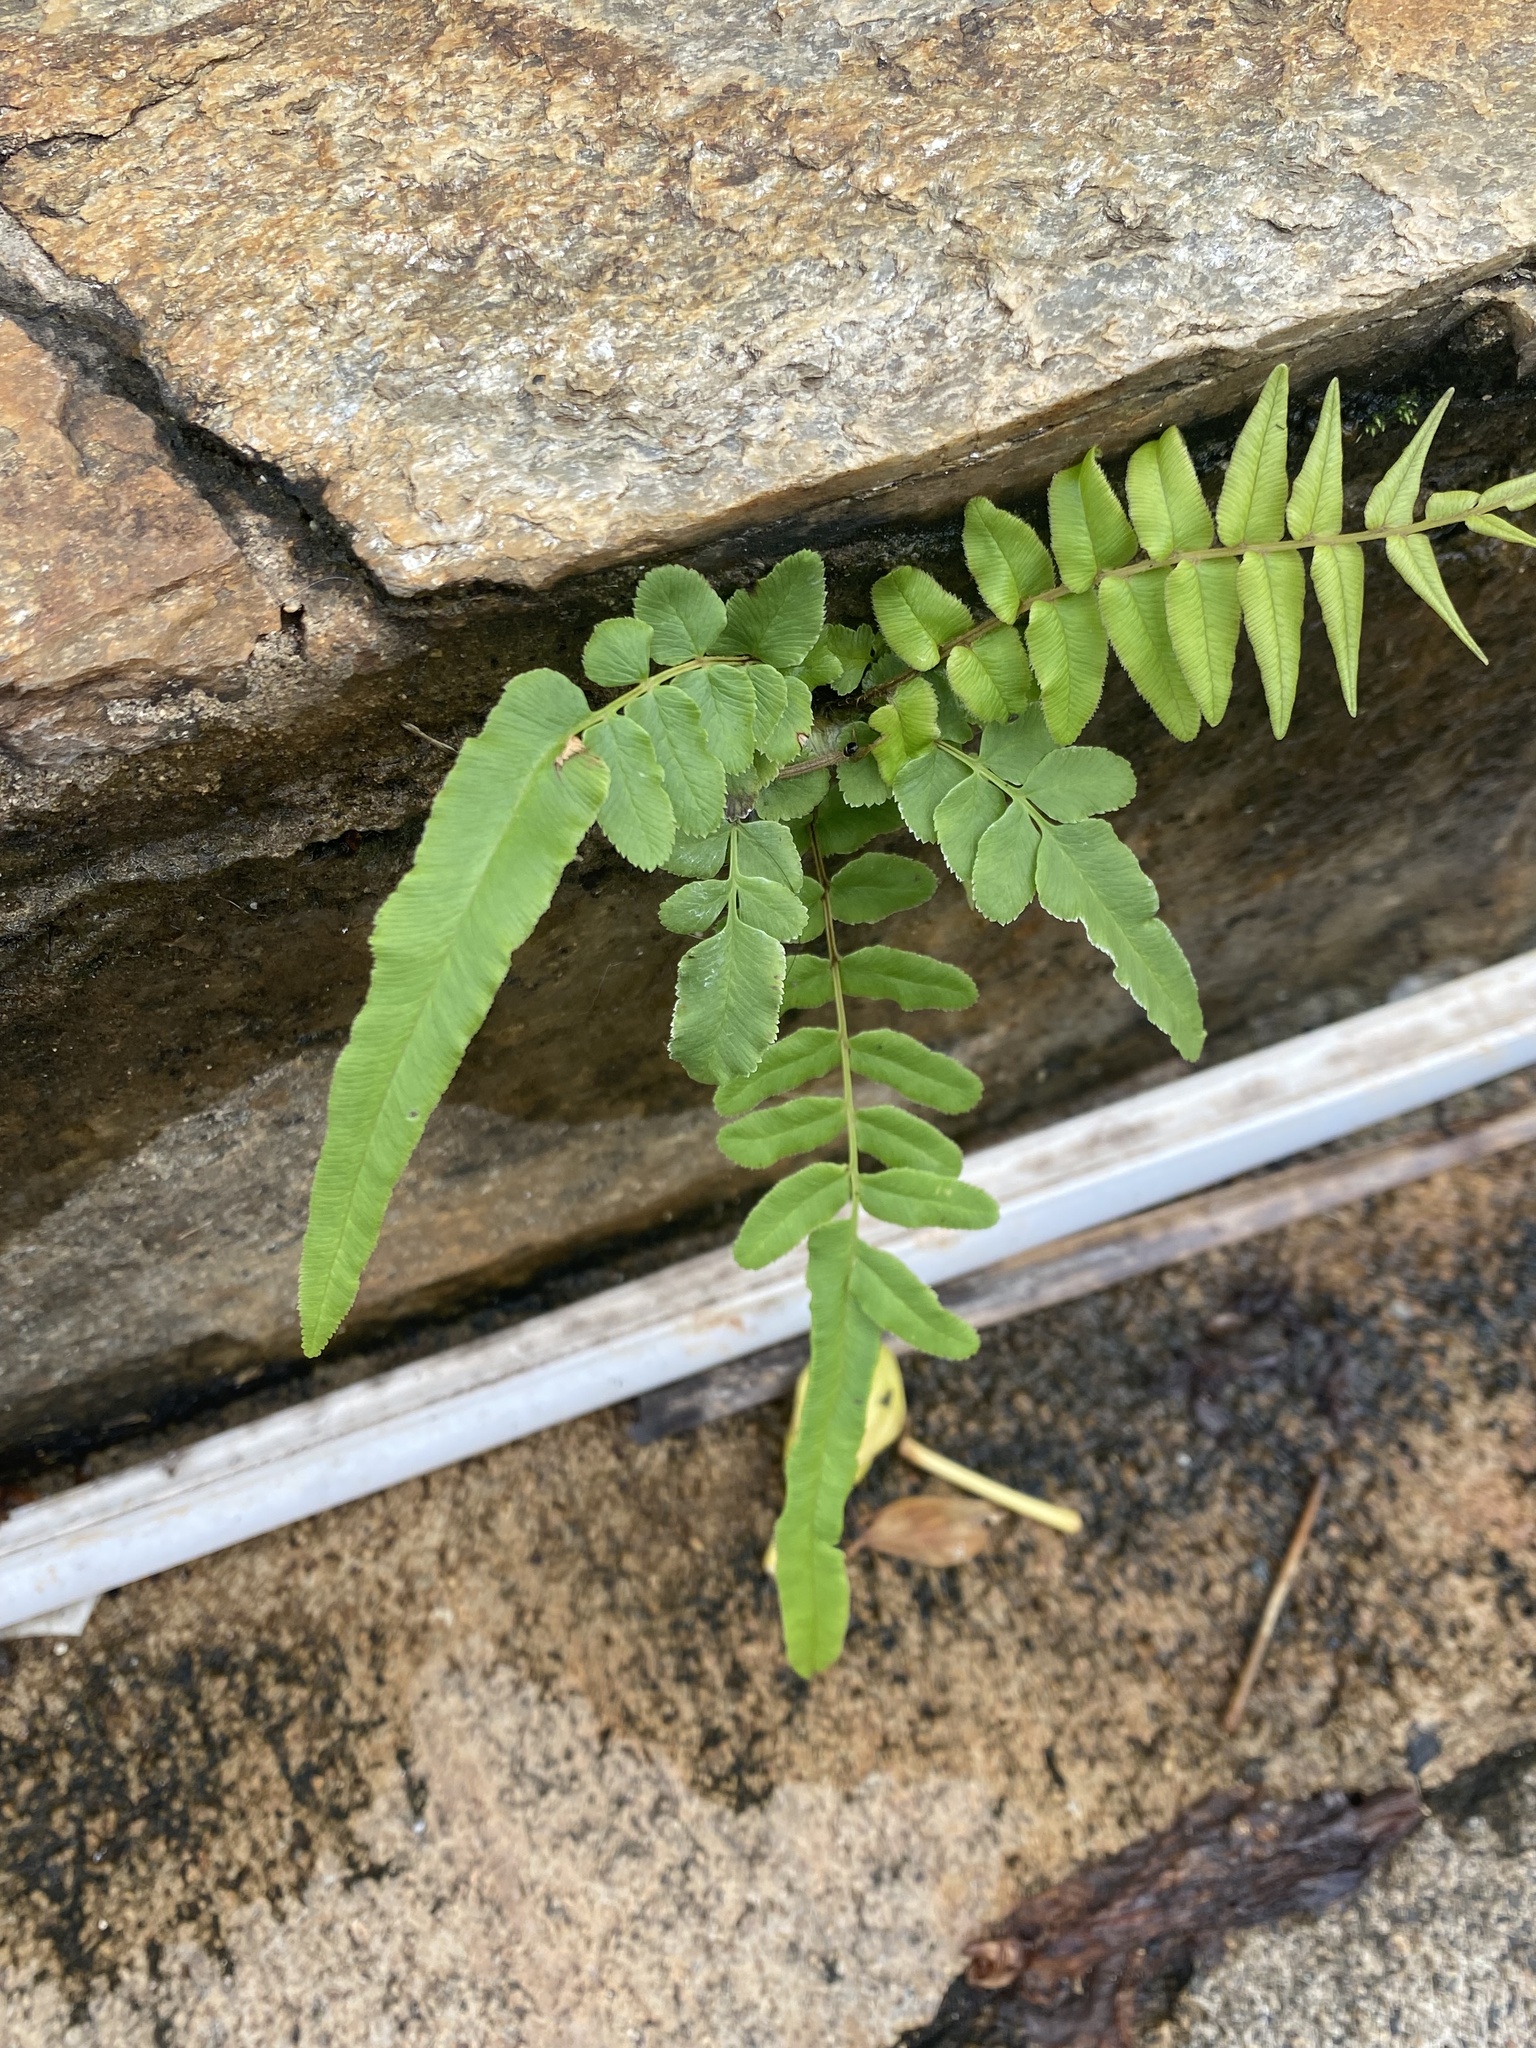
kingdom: Plantae
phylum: Tracheophyta
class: Polypodiopsida
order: Polypodiales
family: Pteridaceae
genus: Pteris
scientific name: Pteris vittata
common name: Ladder brake
